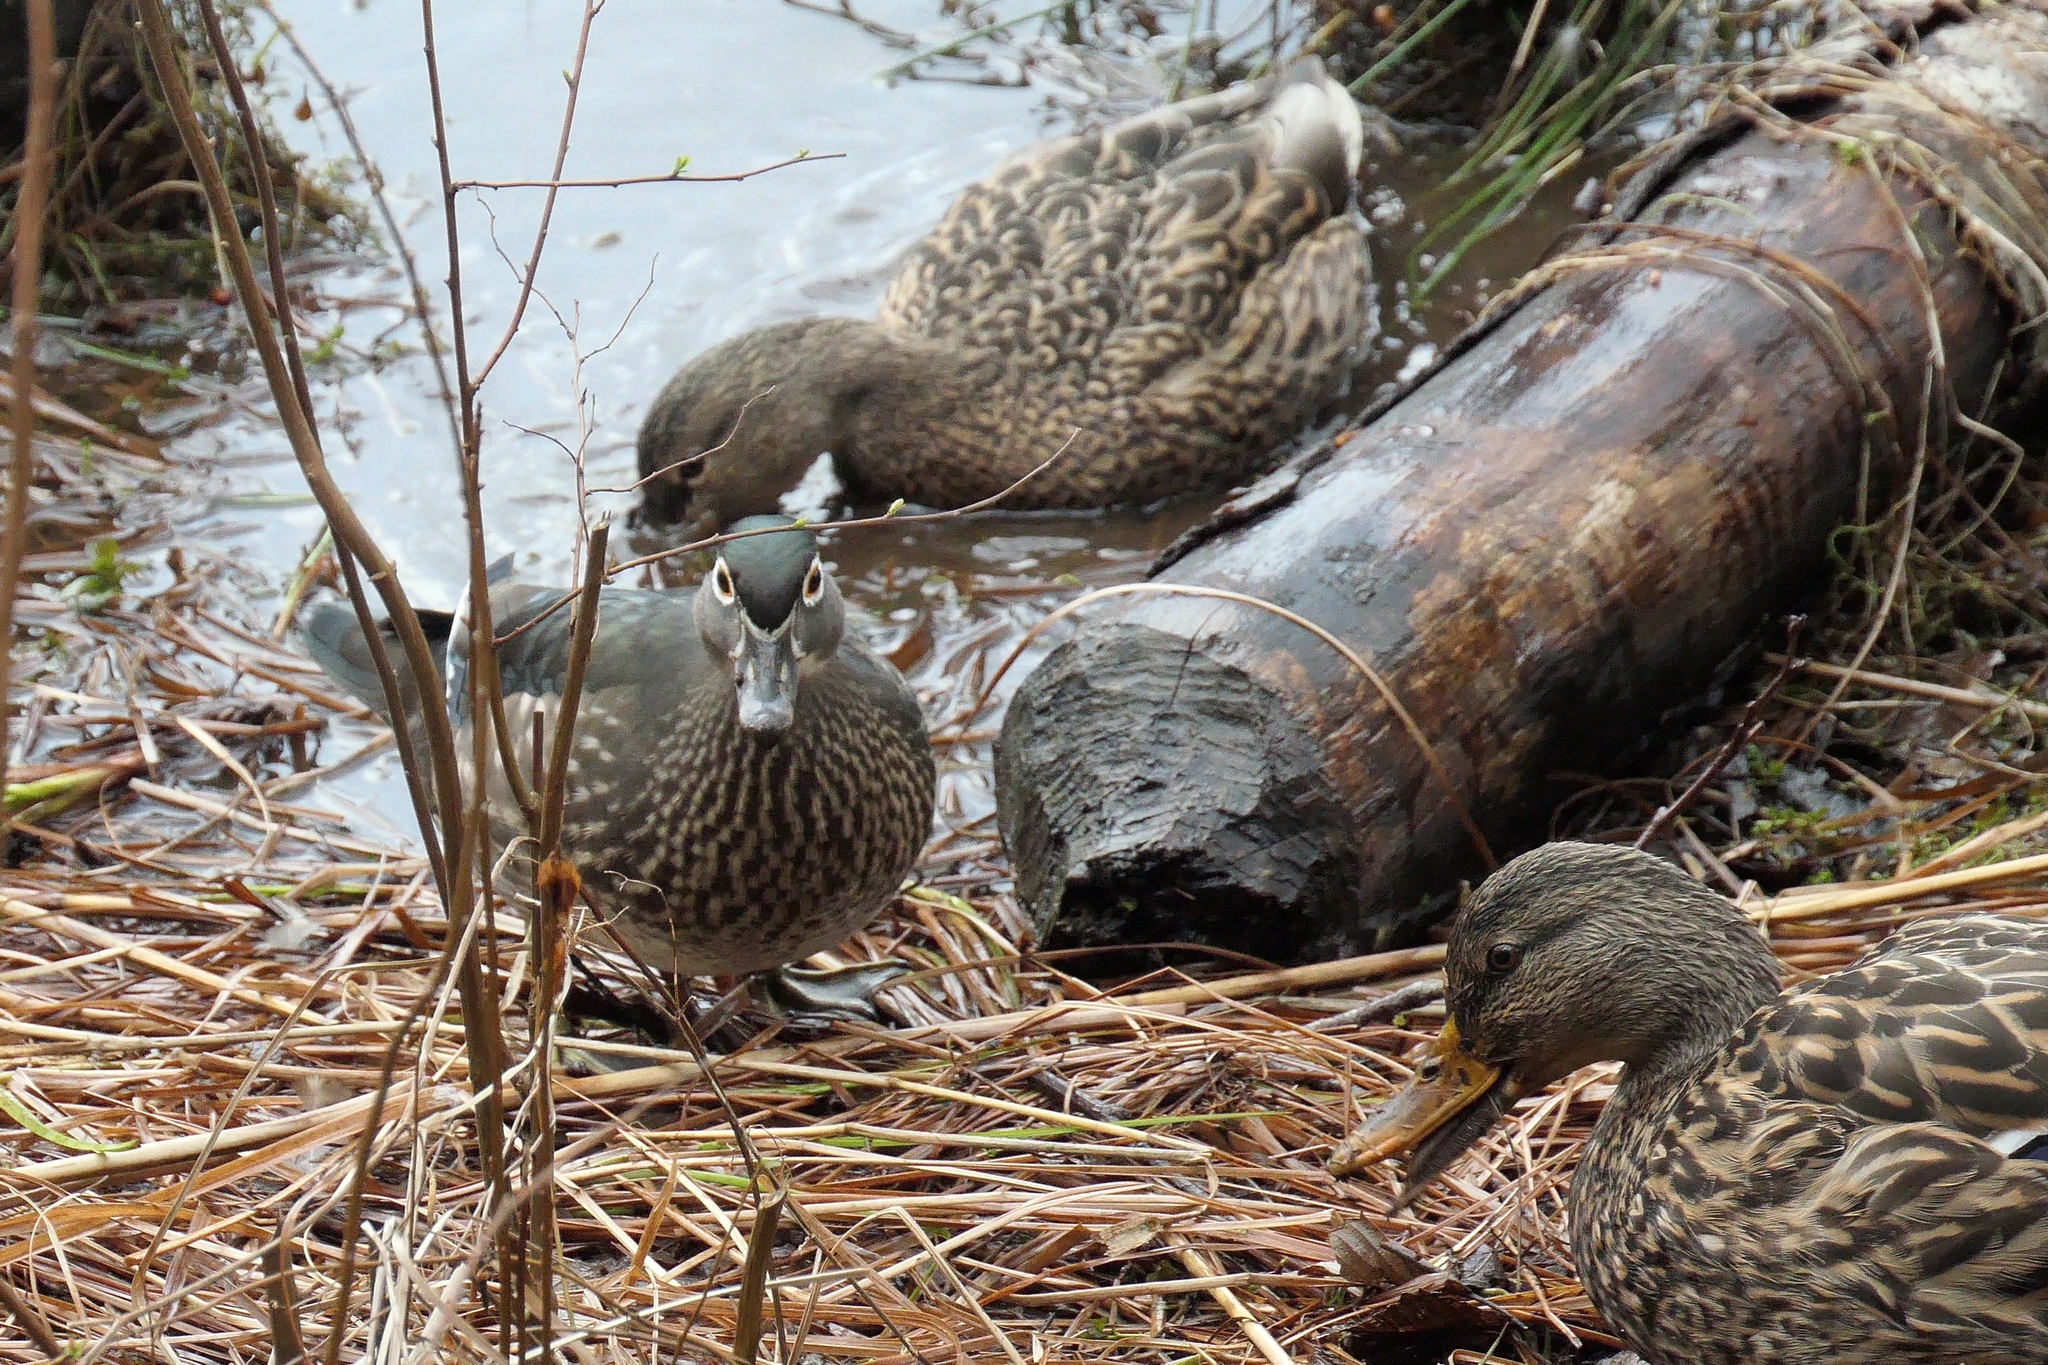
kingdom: Animalia
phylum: Chordata
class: Aves
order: Anseriformes
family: Anatidae
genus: Aix
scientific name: Aix sponsa
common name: Wood duck
